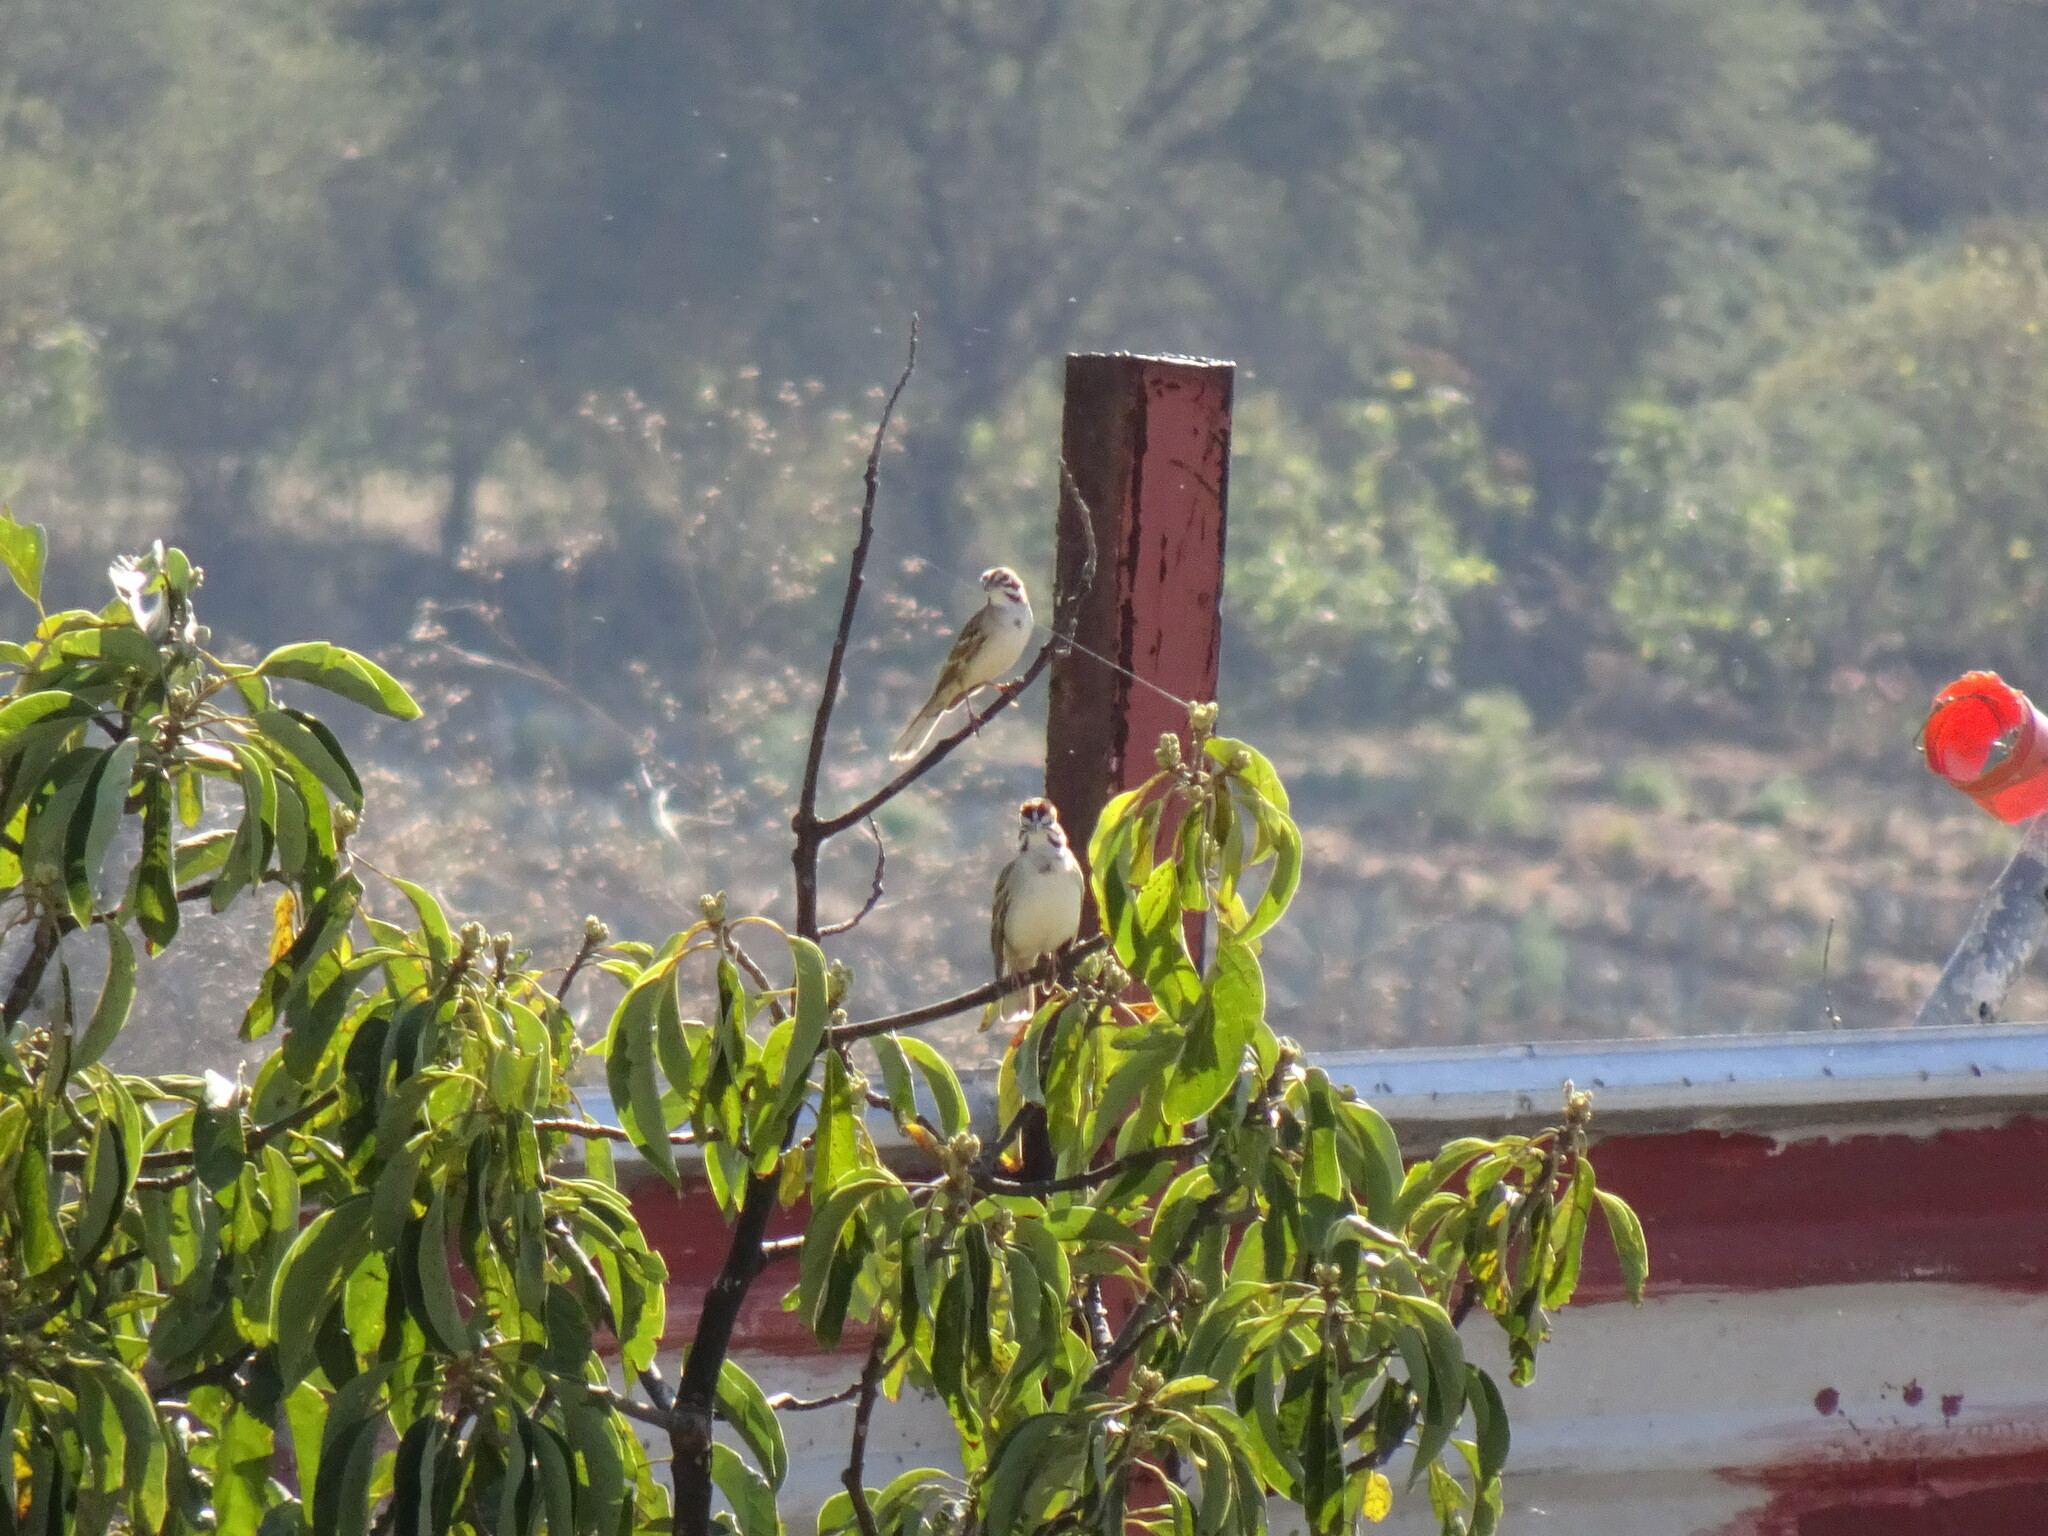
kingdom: Animalia
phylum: Chordata
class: Aves
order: Passeriformes
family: Passerellidae
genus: Chondestes
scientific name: Chondestes grammacus
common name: Lark sparrow
